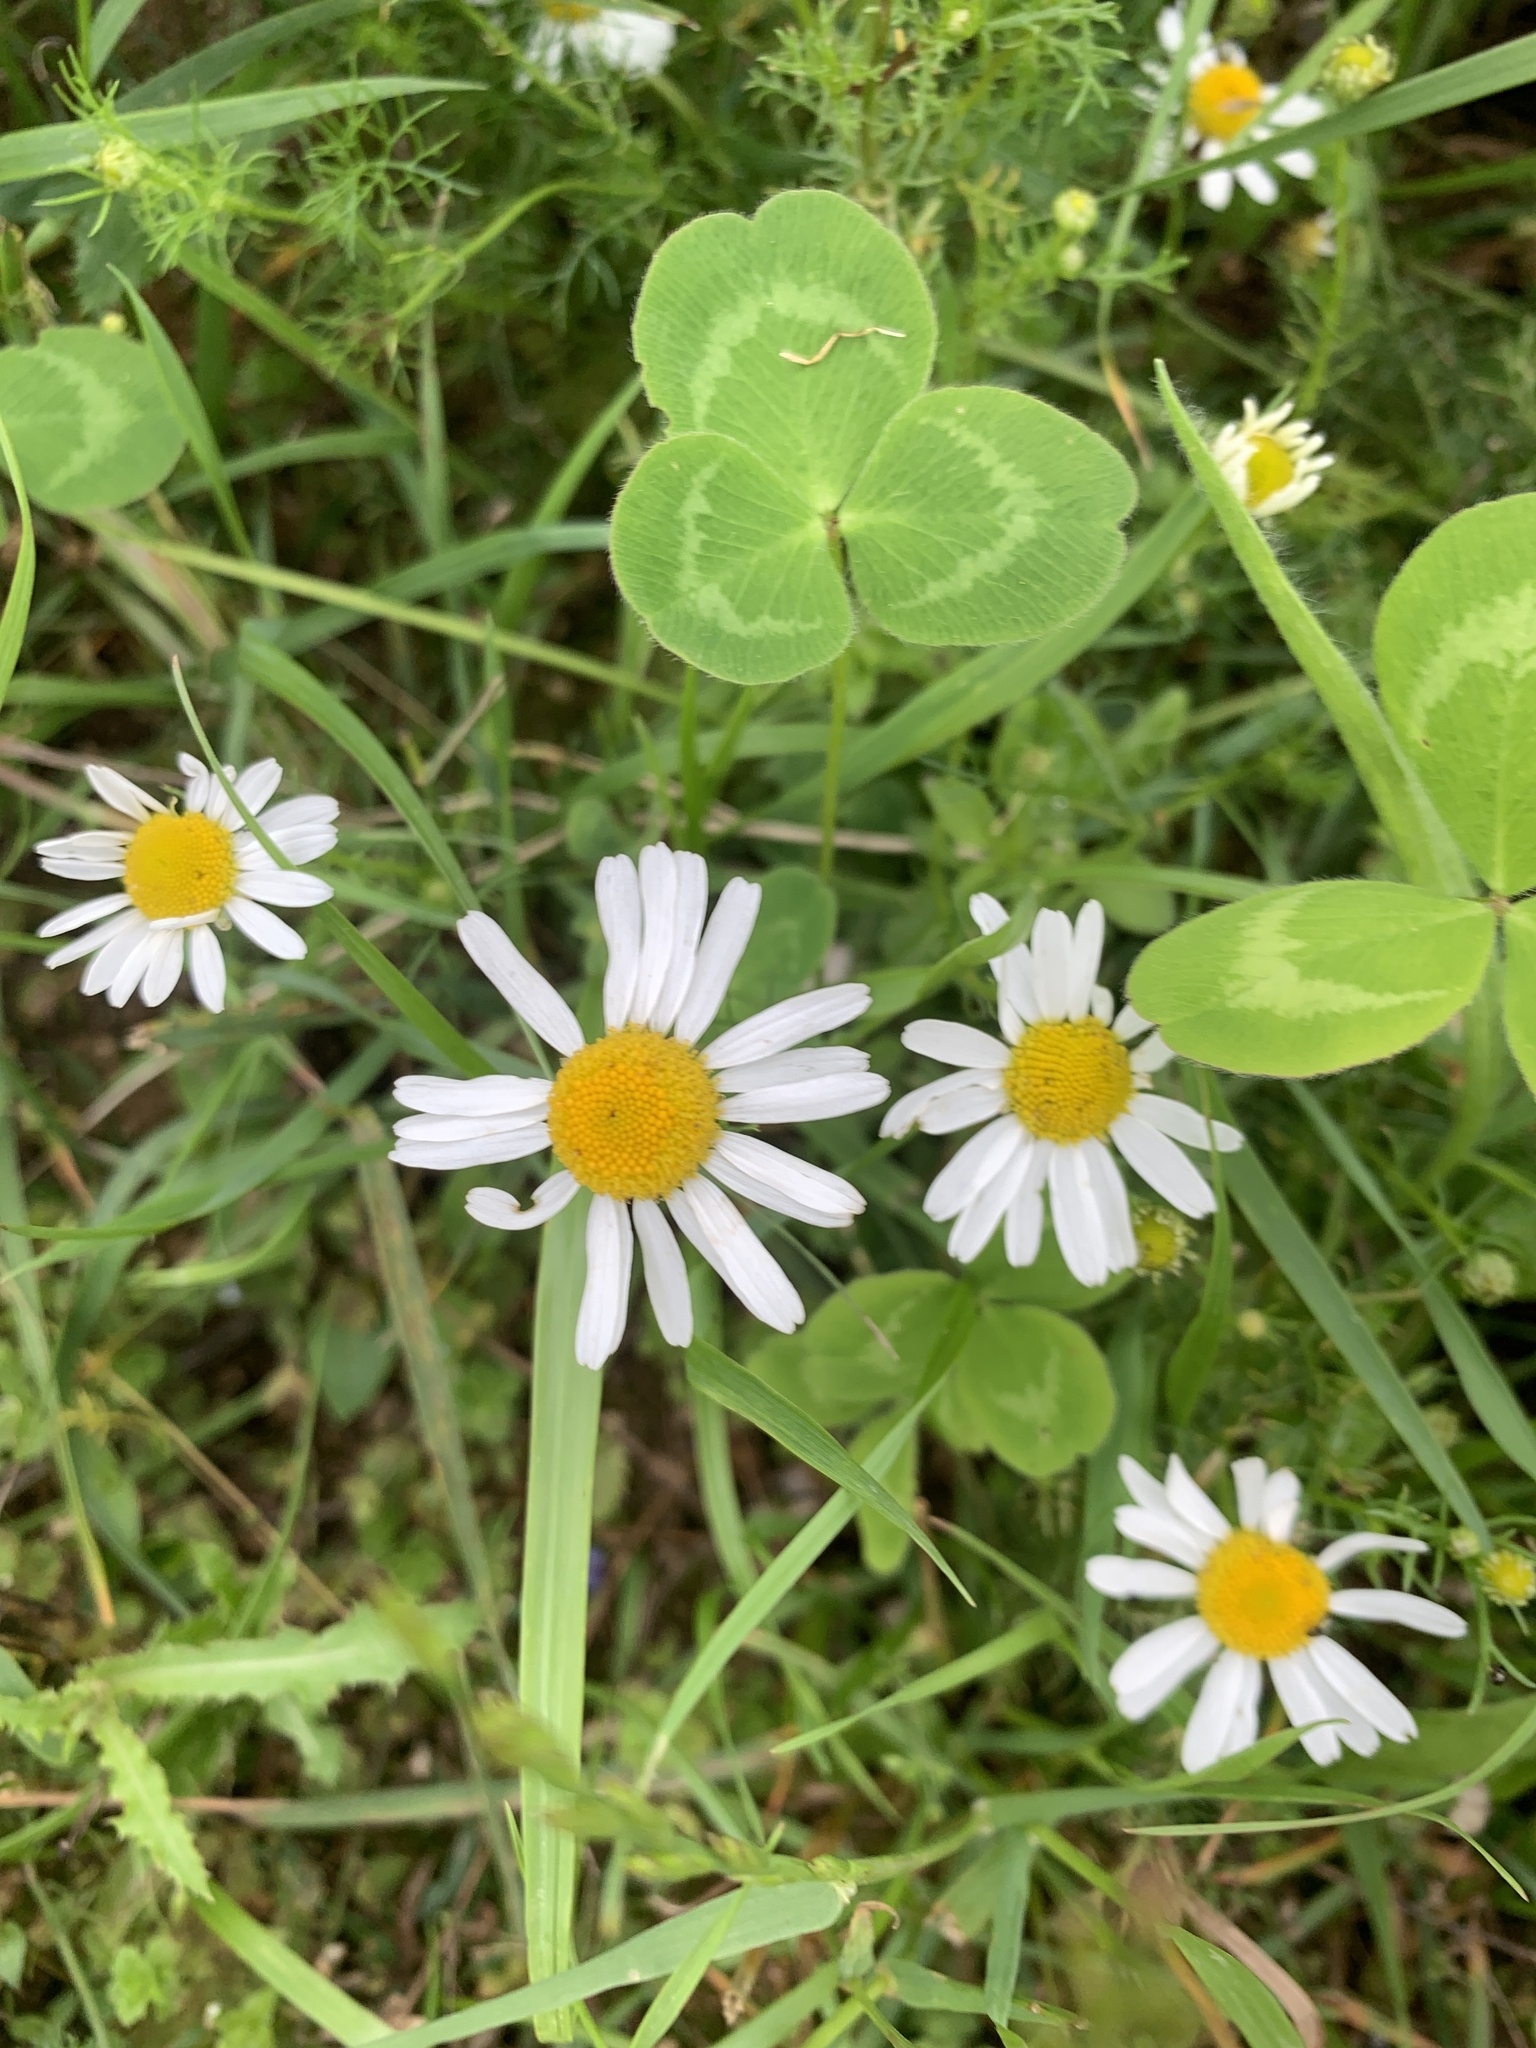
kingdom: Plantae
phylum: Tracheophyta
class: Magnoliopsida
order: Asterales
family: Asteraceae
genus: Bellis
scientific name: Bellis perennis
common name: Lawndaisy
